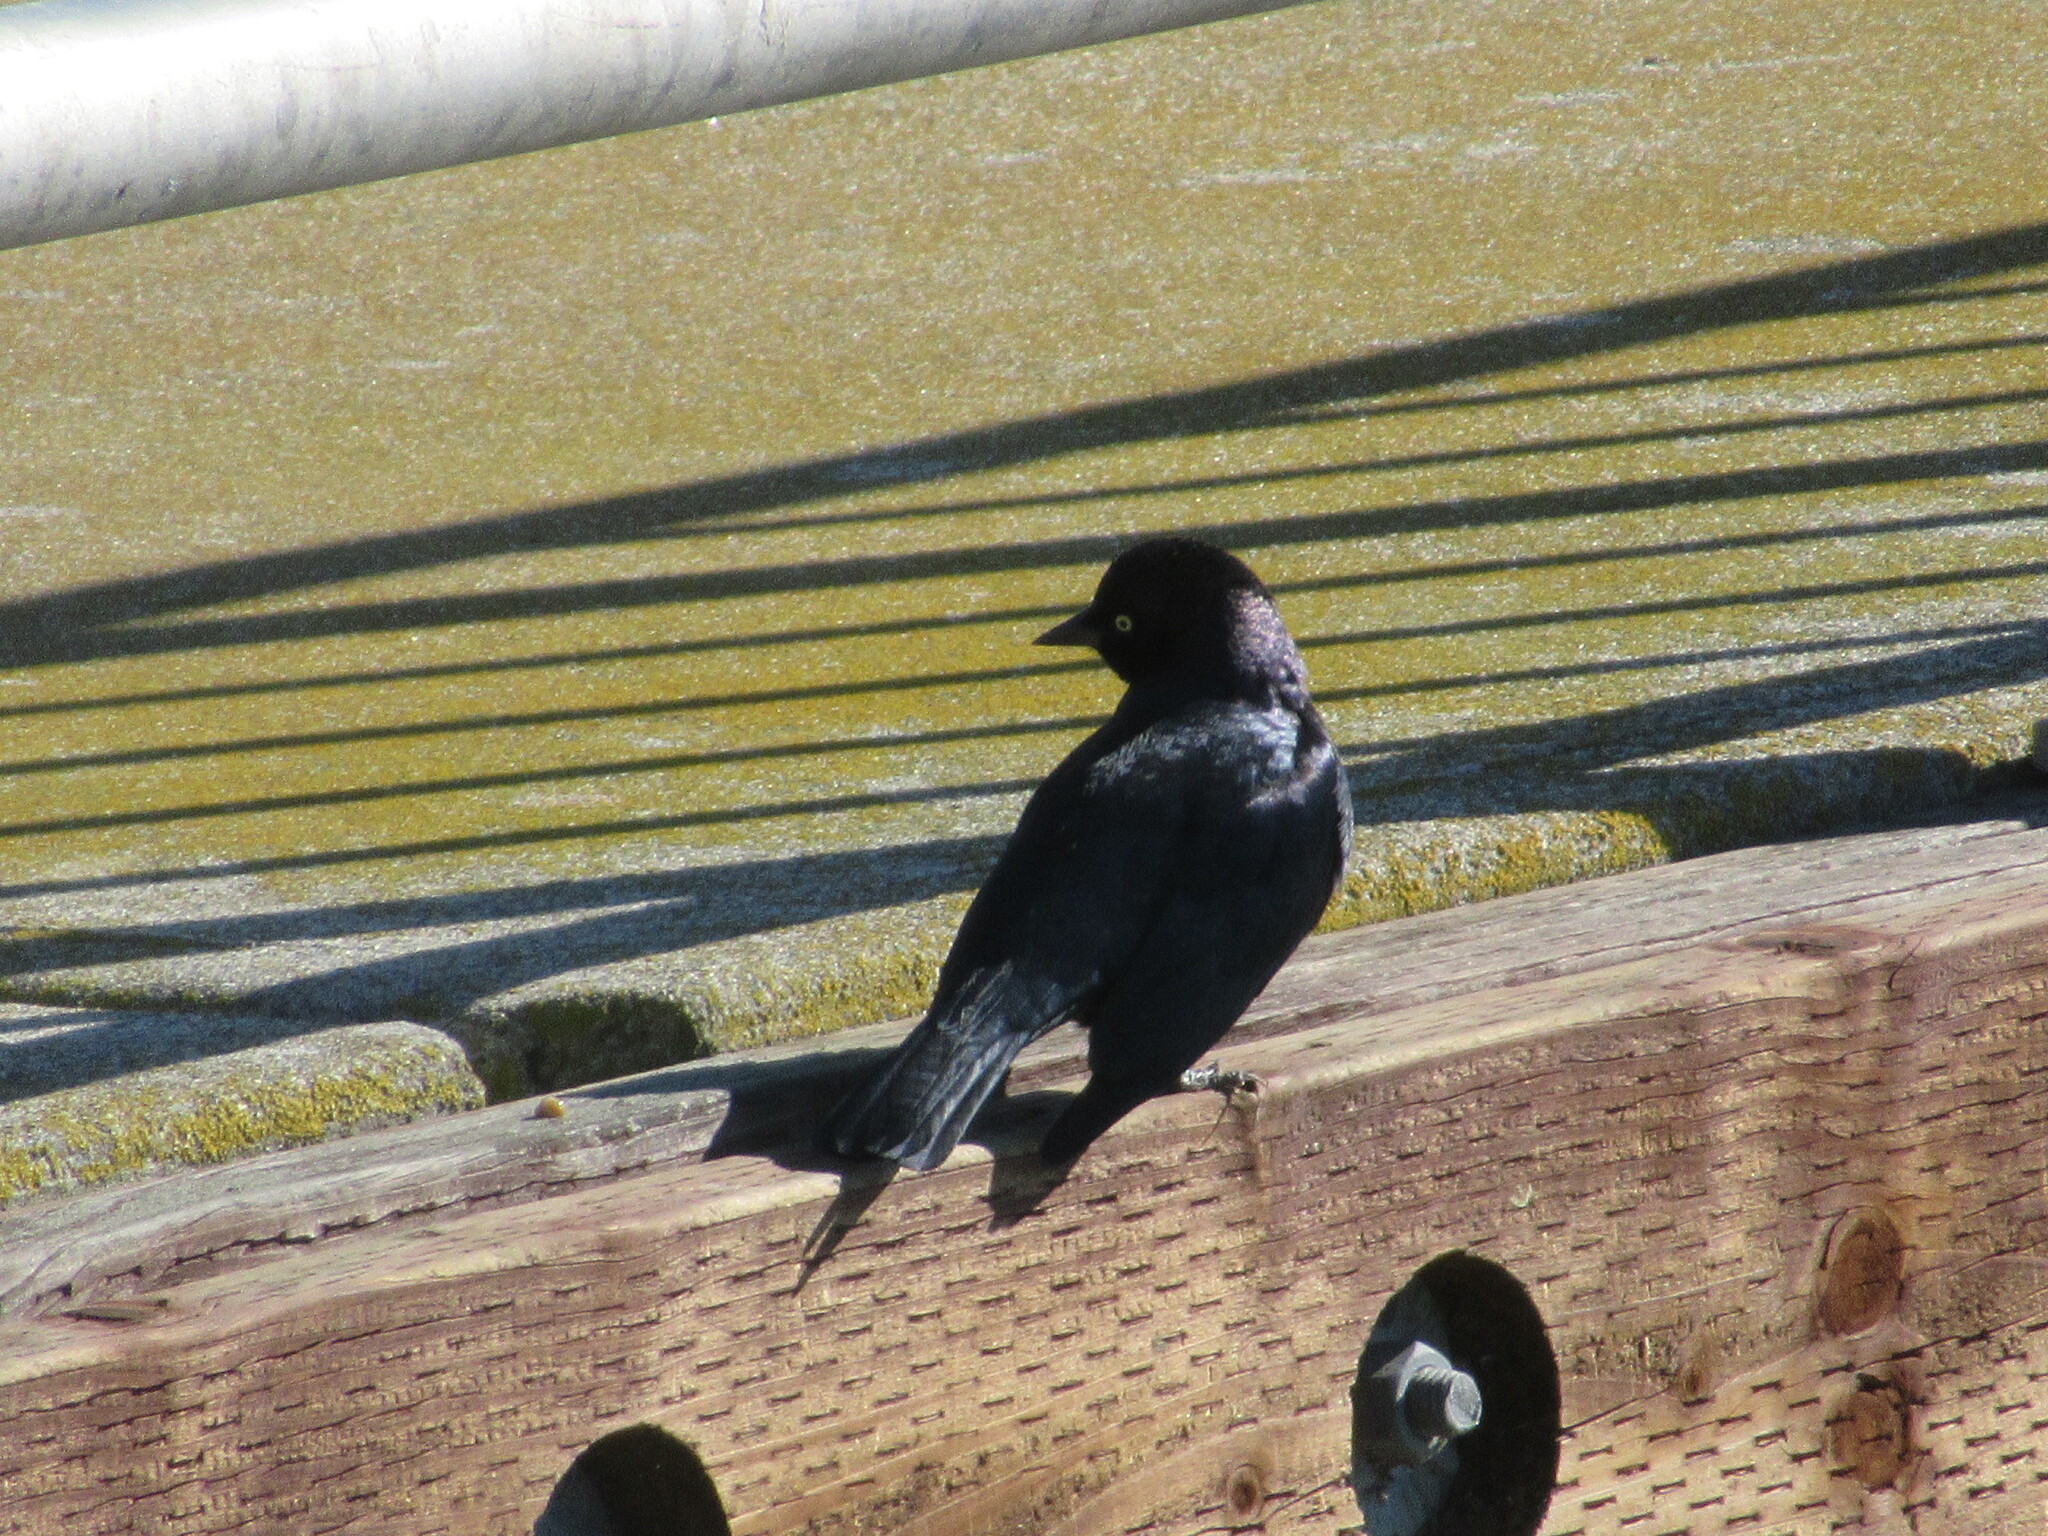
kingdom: Animalia
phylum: Chordata
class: Aves
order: Passeriformes
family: Icteridae
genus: Euphagus
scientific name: Euphagus cyanocephalus
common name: Brewer's blackbird
